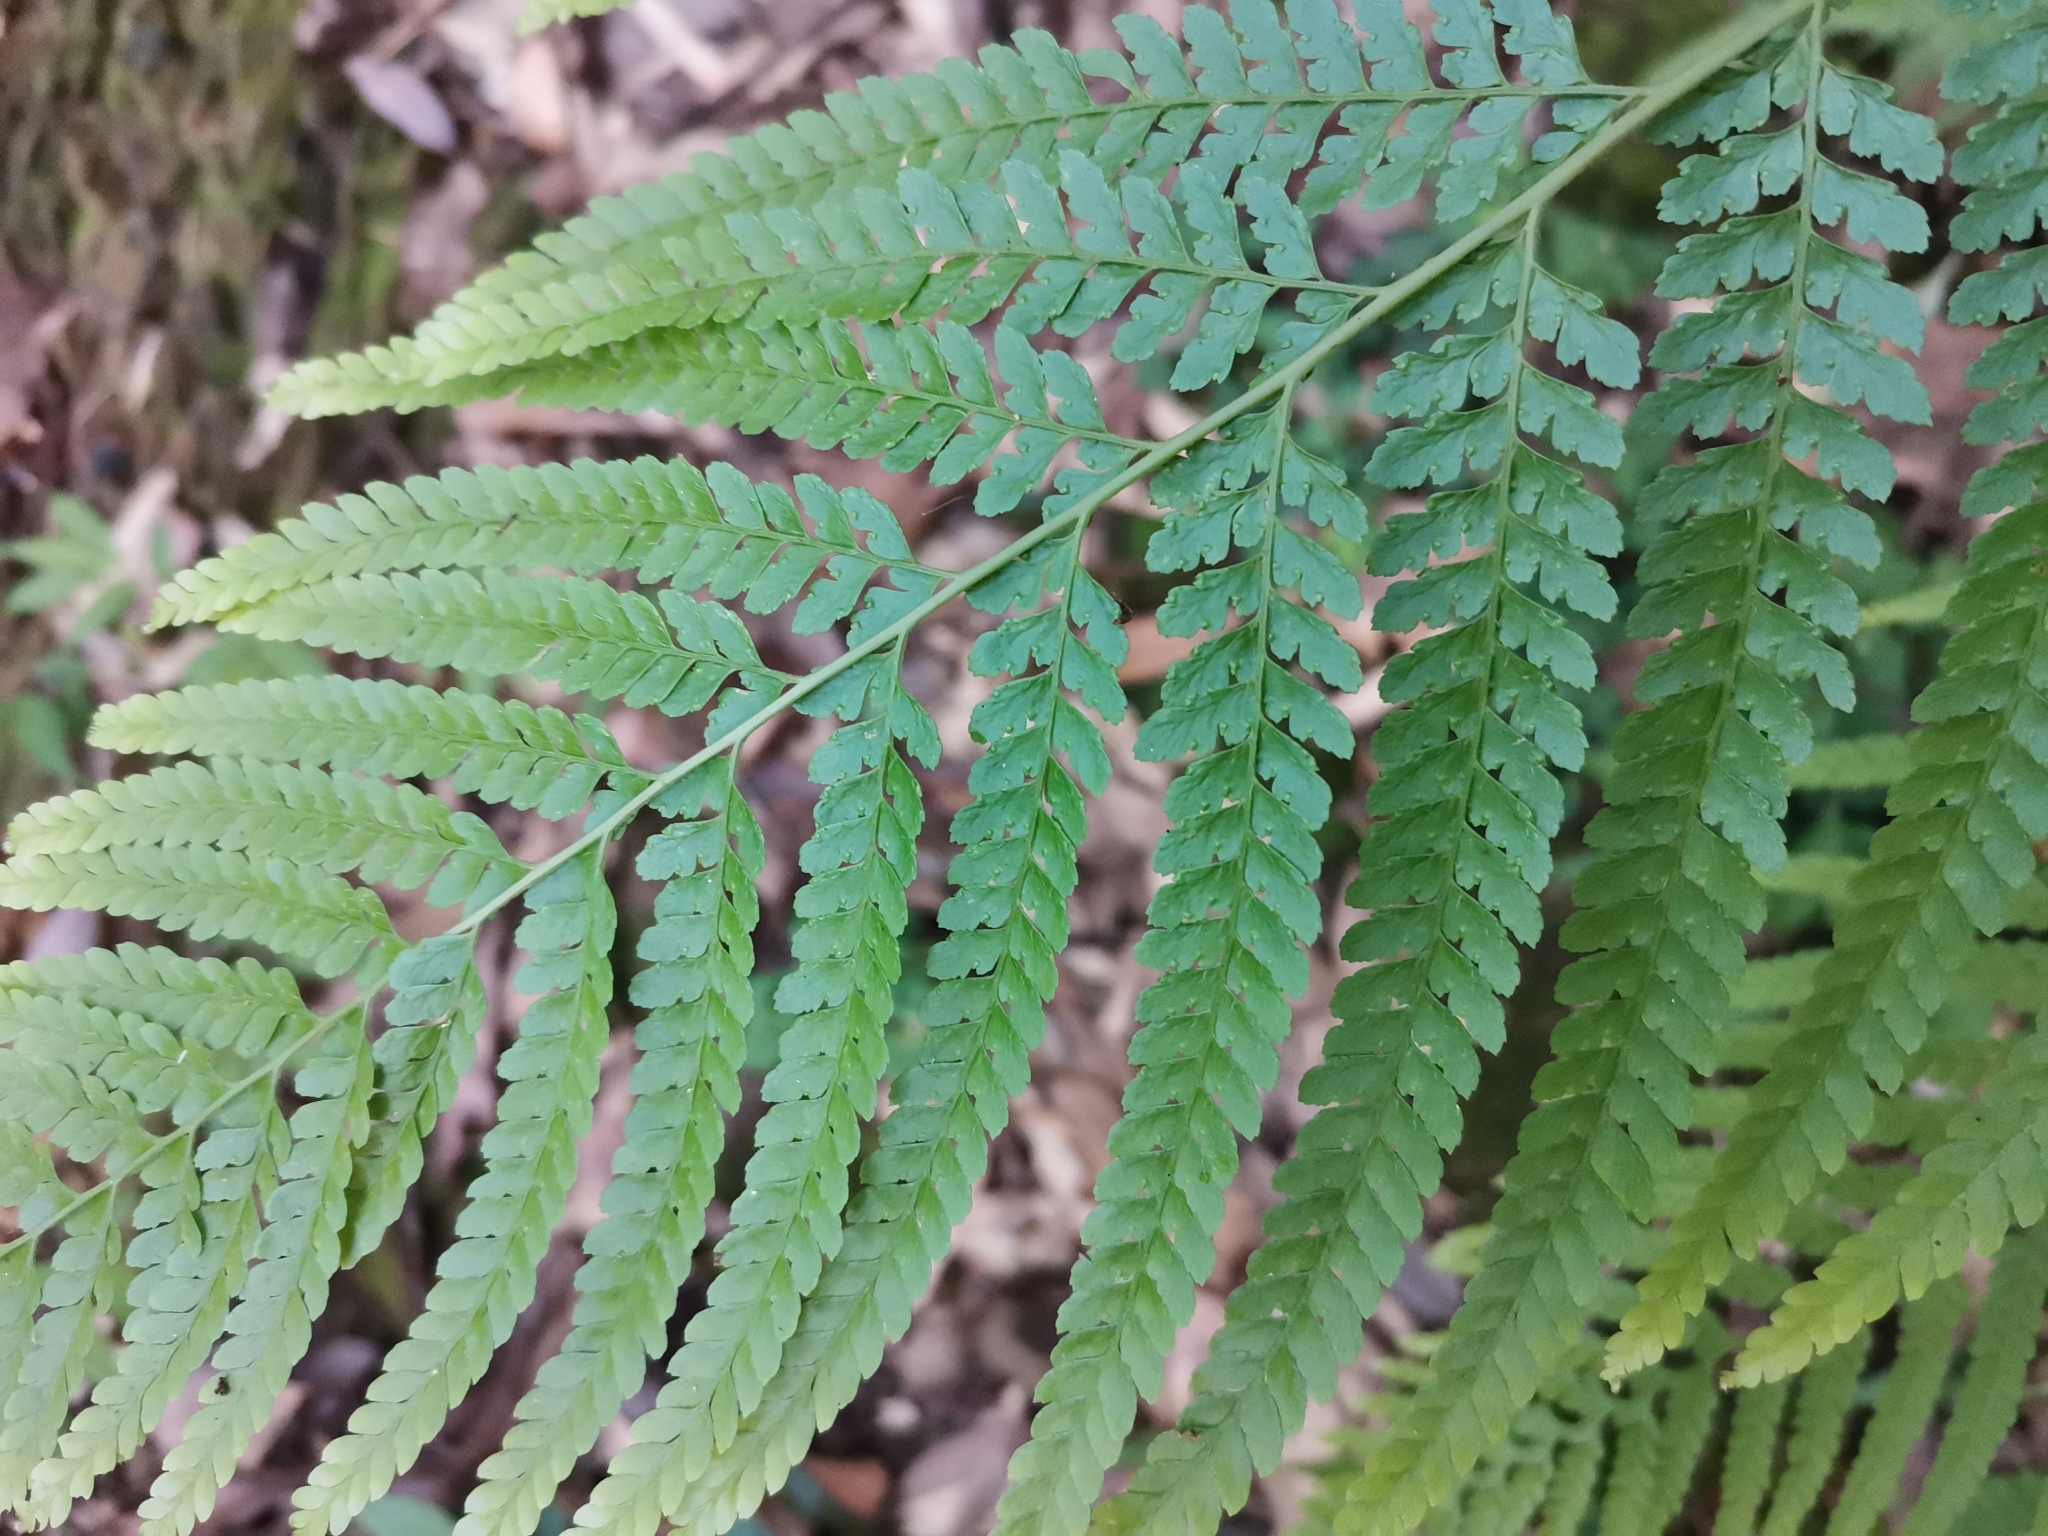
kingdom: Plantae
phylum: Tracheophyta
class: Polypodiopsida
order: Polypodiales
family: Dennstaedtiaceae
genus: Microlepia
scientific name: Microlepia strigosa
